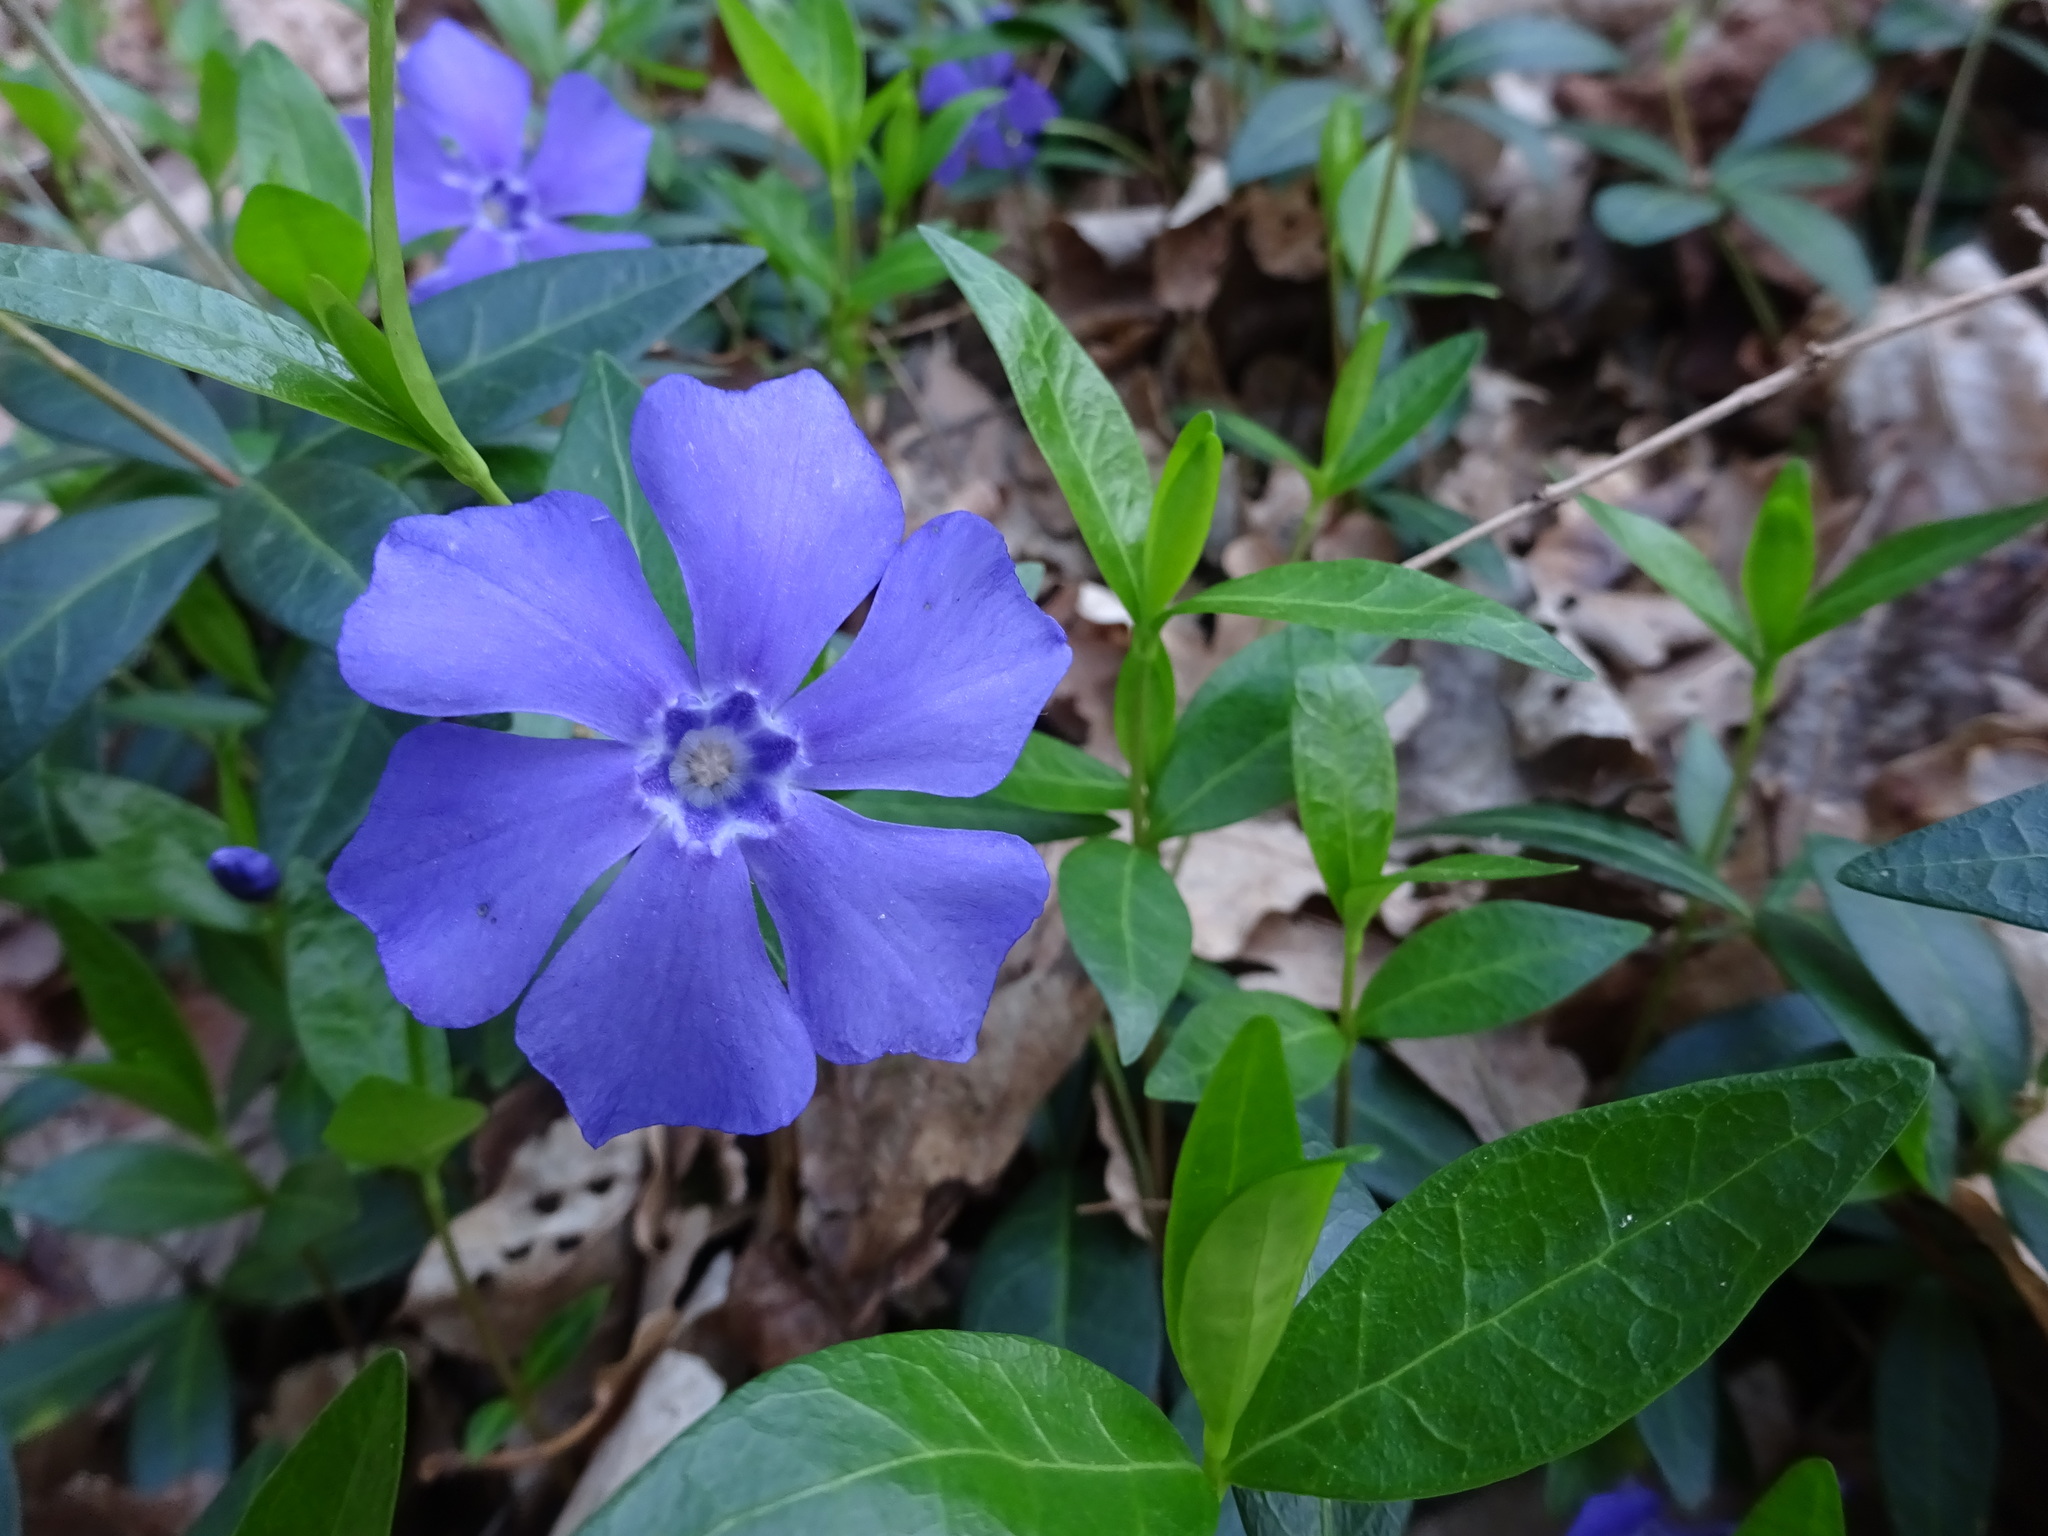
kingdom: Plantae
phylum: Tracheophyta
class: Magnoliopsida
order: Gentianales
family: Apocynaceae
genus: Vinca
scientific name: Vinca minor
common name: Lesser periwinkle
